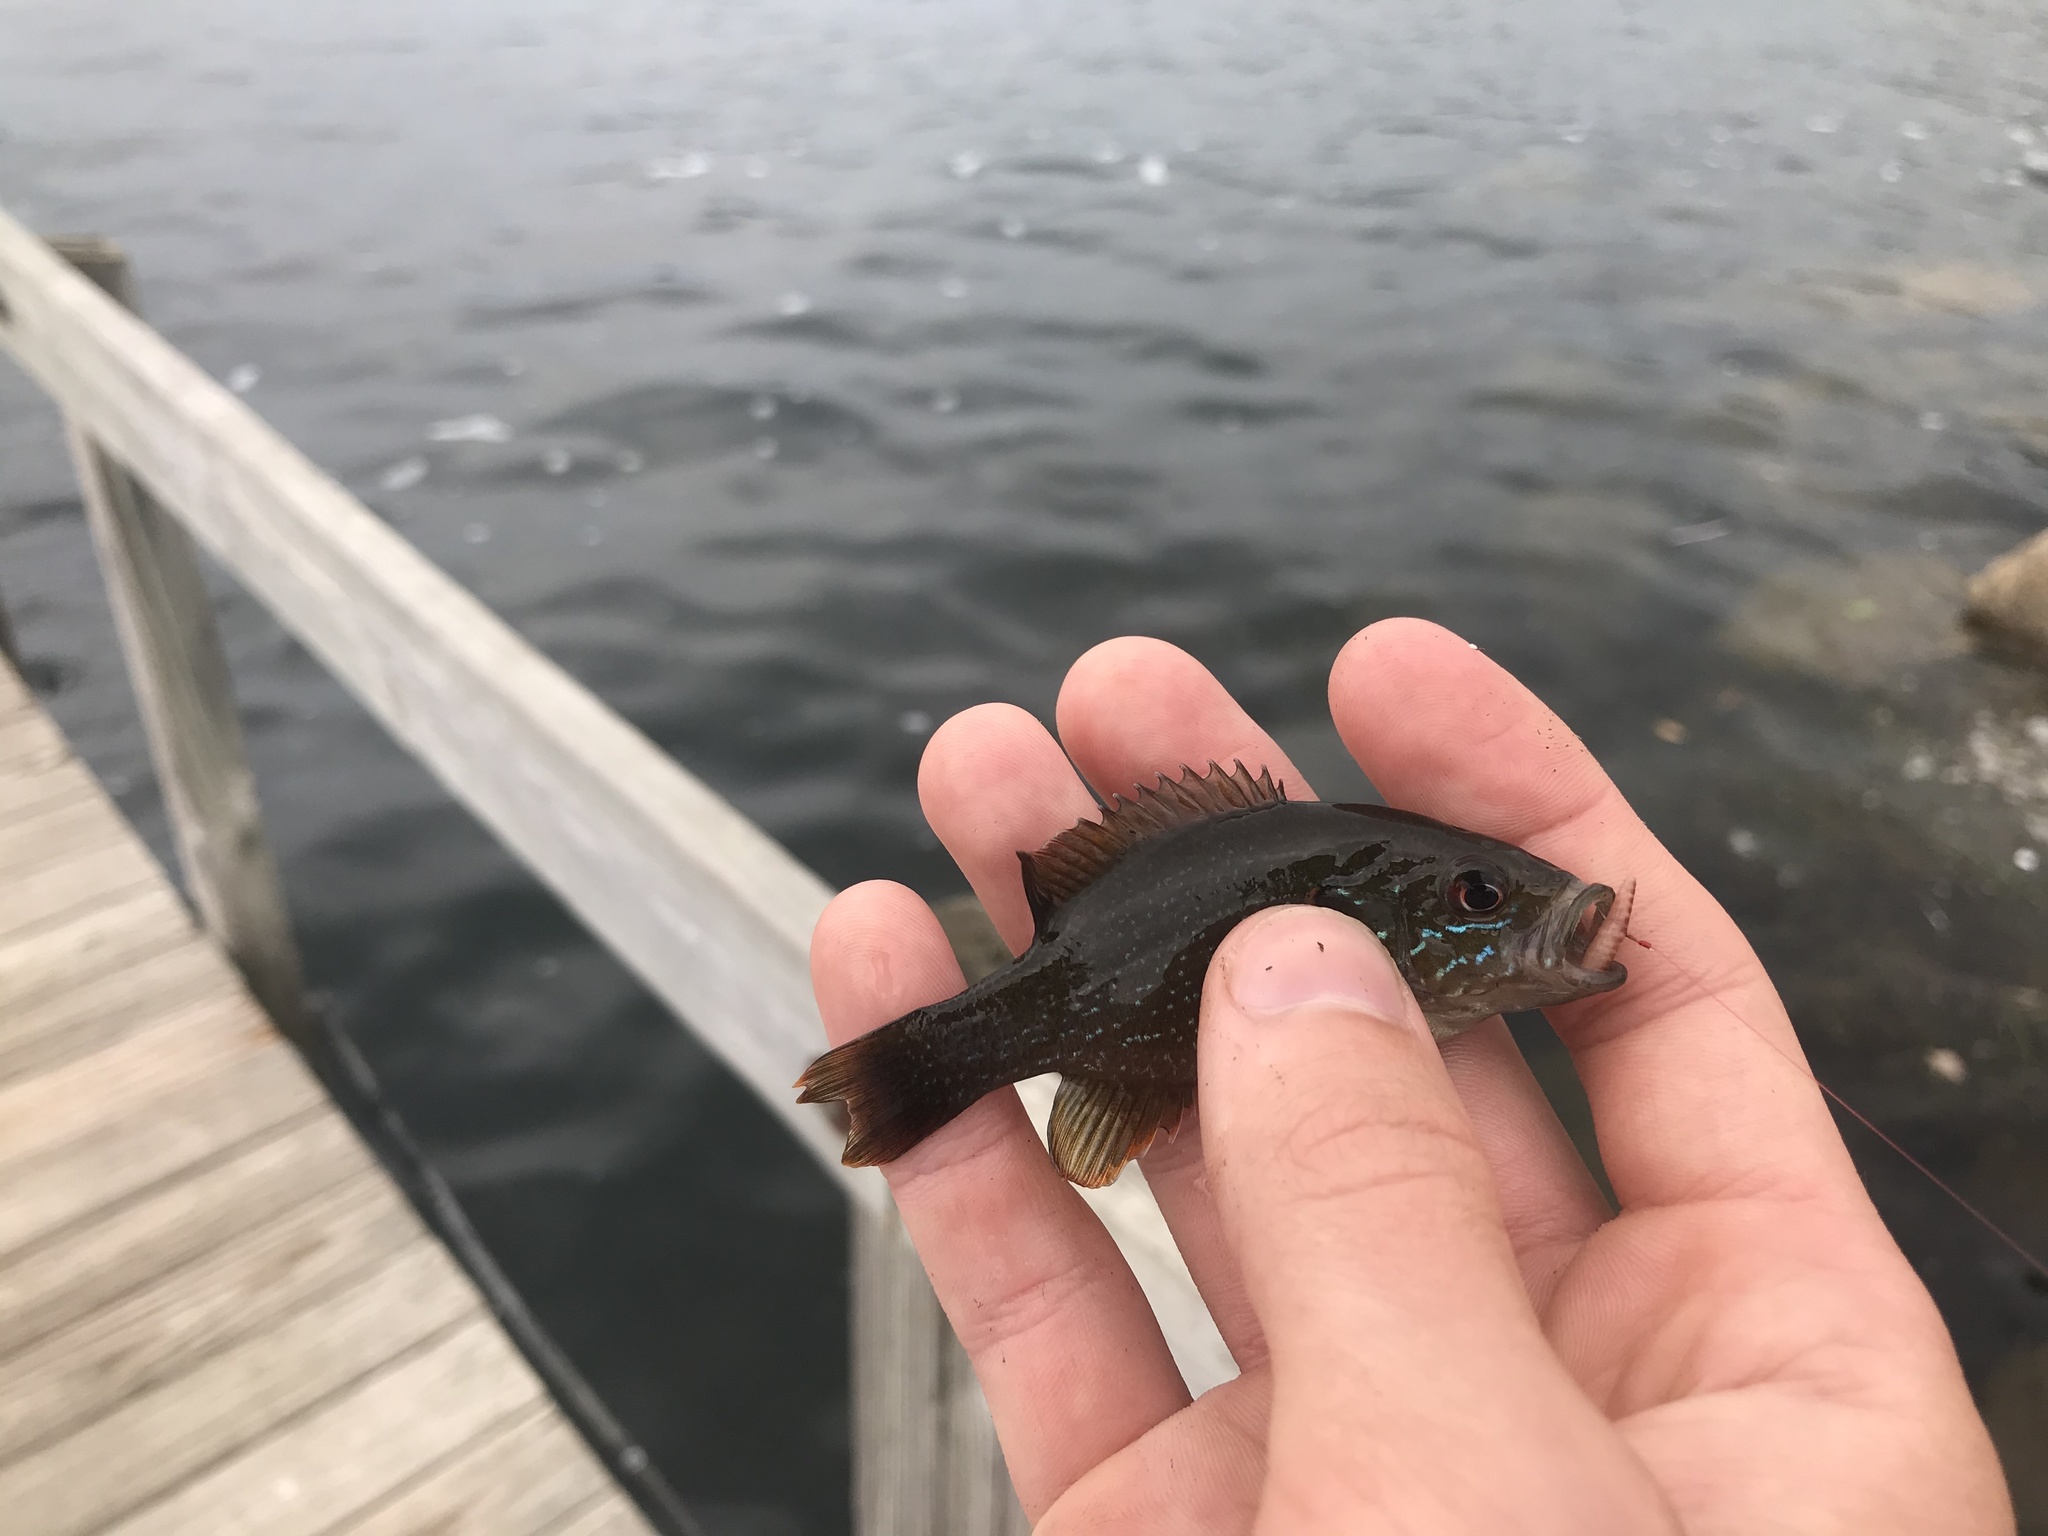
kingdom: Animalia
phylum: Chordata
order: Perciformes
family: Centrarchidae
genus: Lepomis
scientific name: Lepomis cyanellus
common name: Green sunfish
